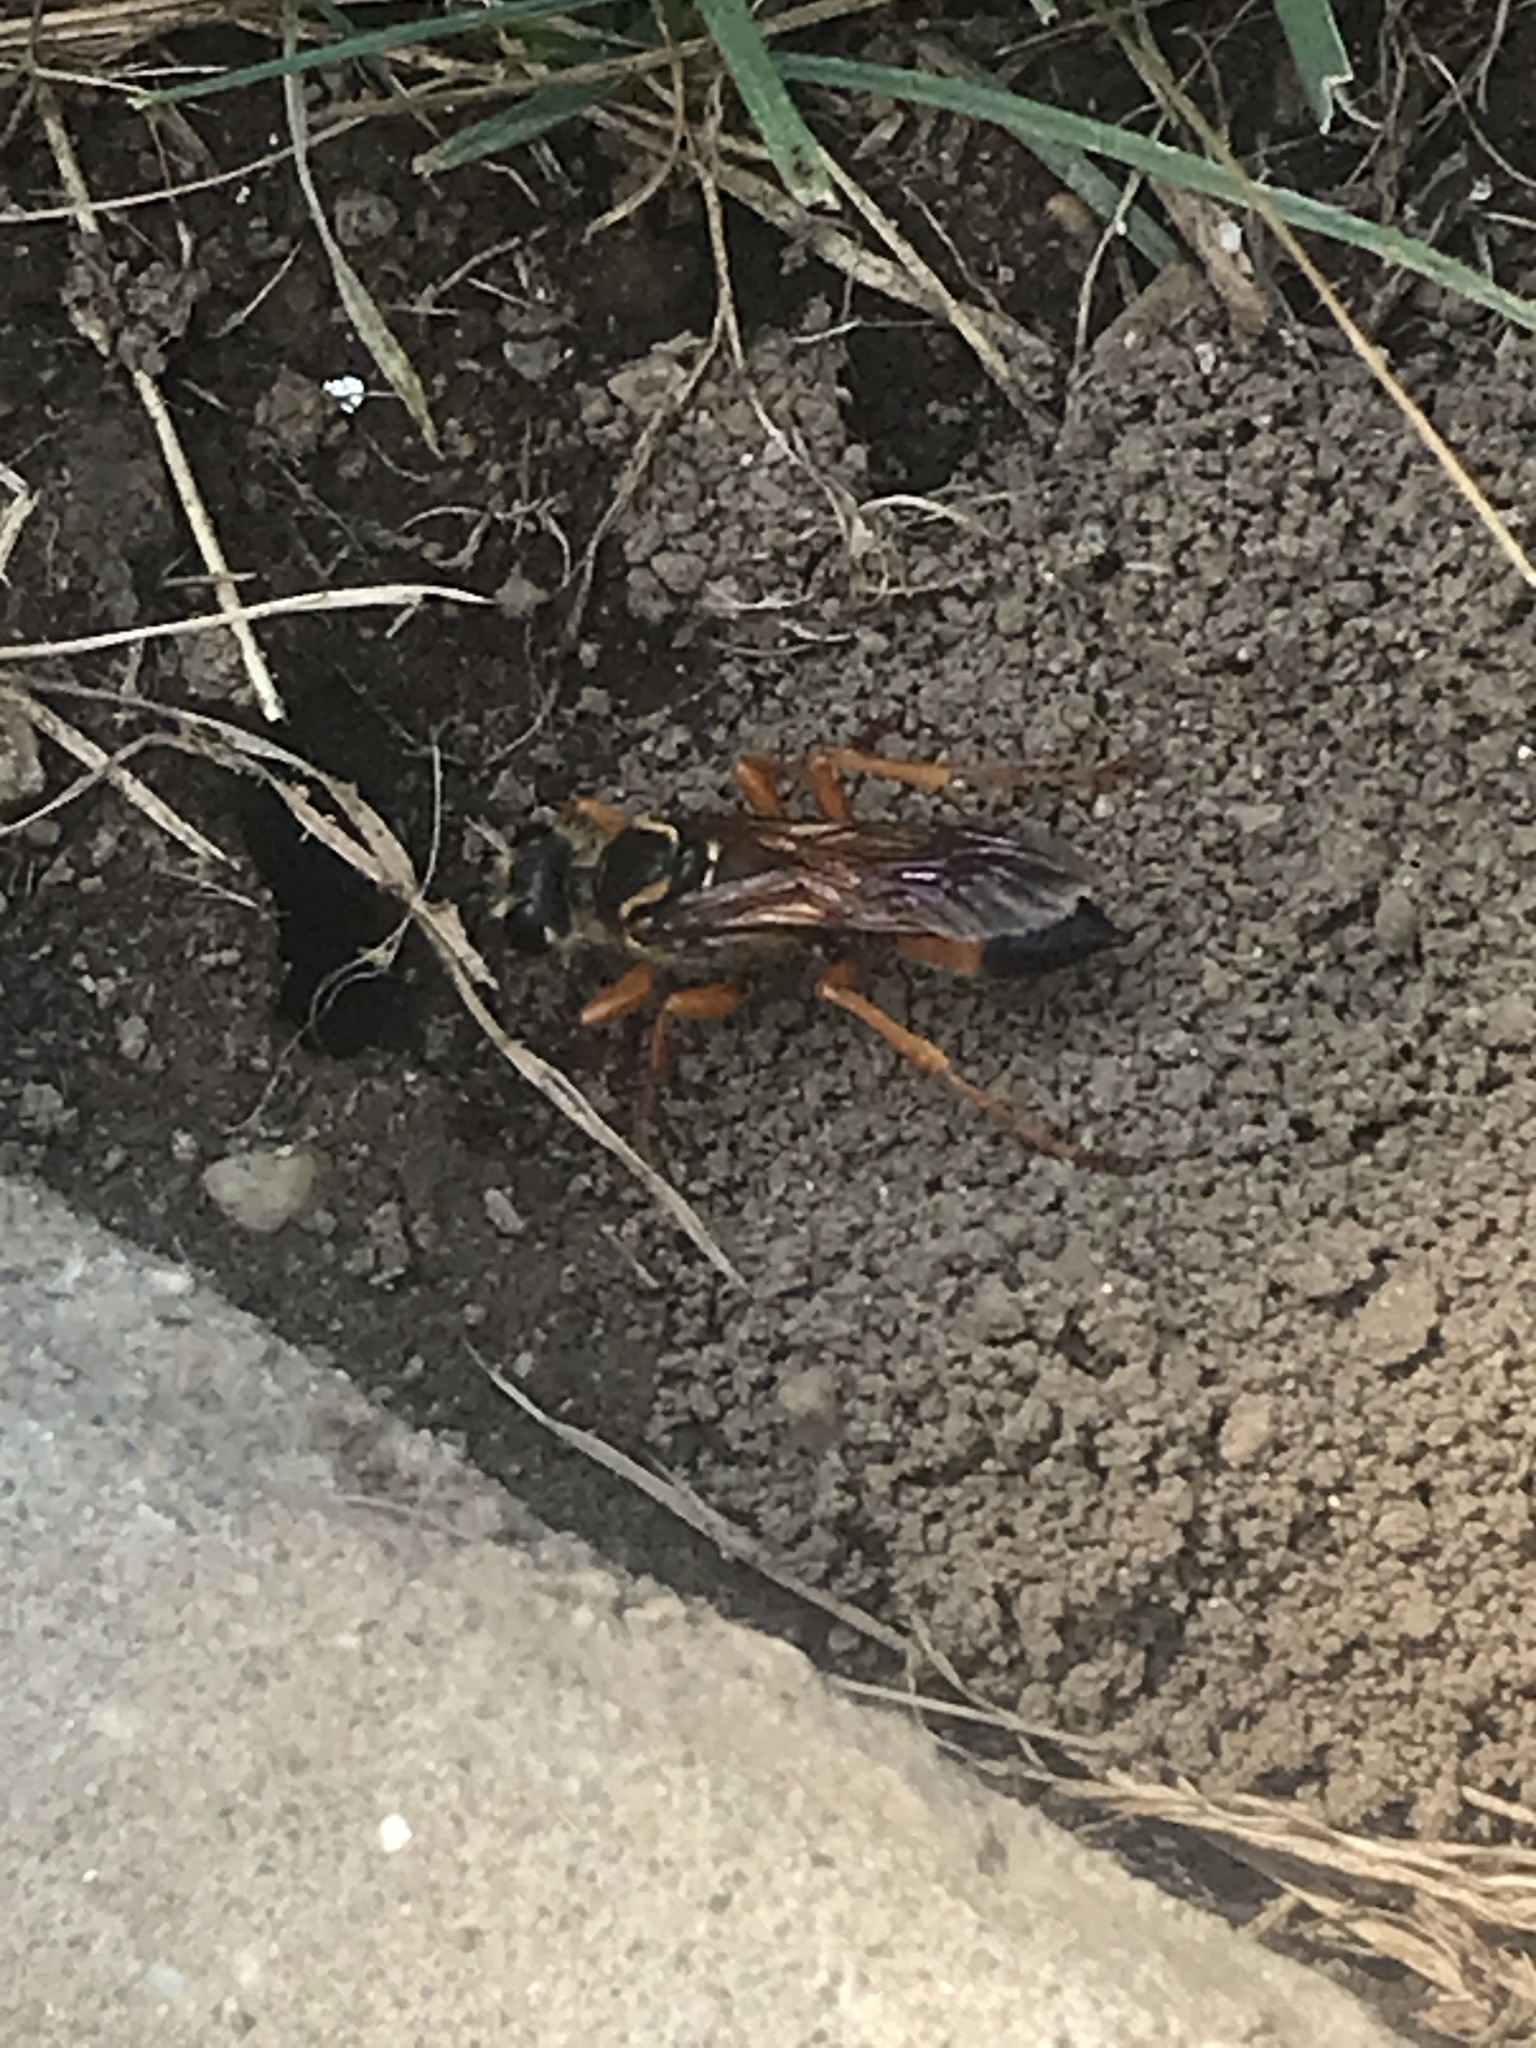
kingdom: Animalia
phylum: Arthropoda
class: Insecta
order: Hymenoptera
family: Sphecidae
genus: Sphex
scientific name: Sphex ichneumoneus
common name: Great golden digger wasp
